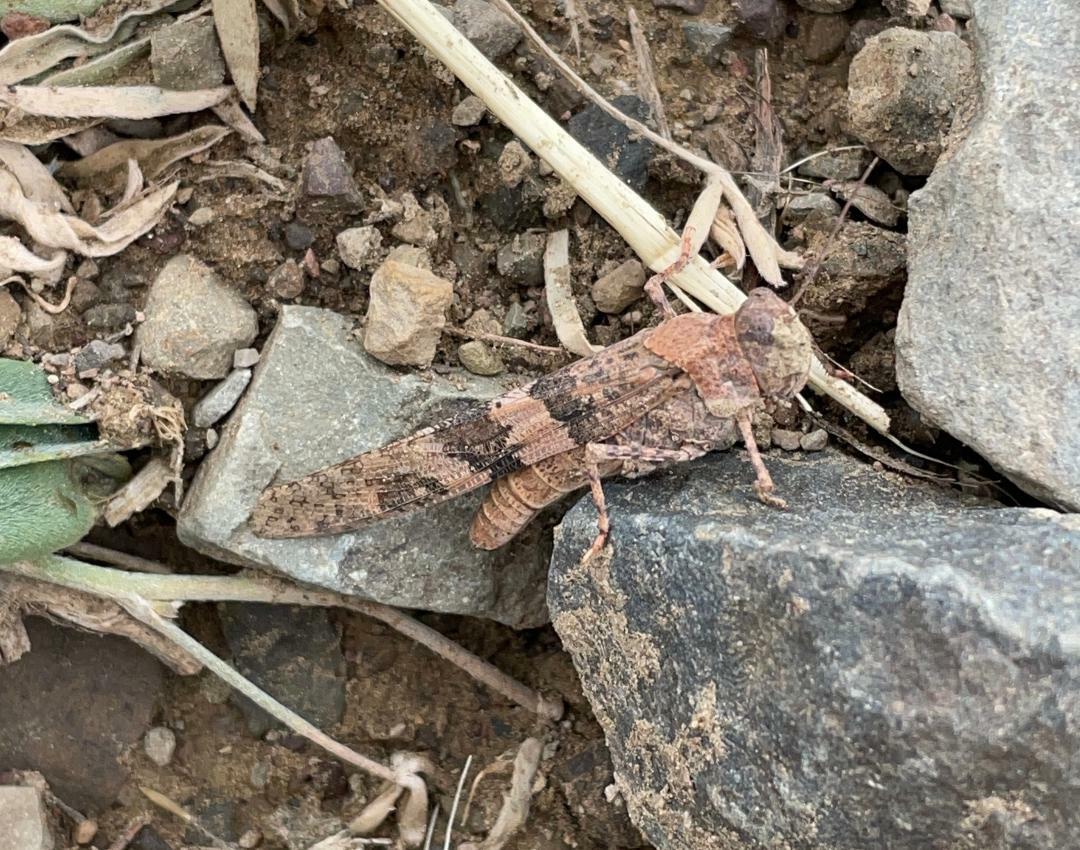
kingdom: Animalia
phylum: Arthropoda
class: Insecta
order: Orthoptera
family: Acrididae
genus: Trimerotropis
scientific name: Trimerotropis pallidipennis
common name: Pallid-winged grasshopper
